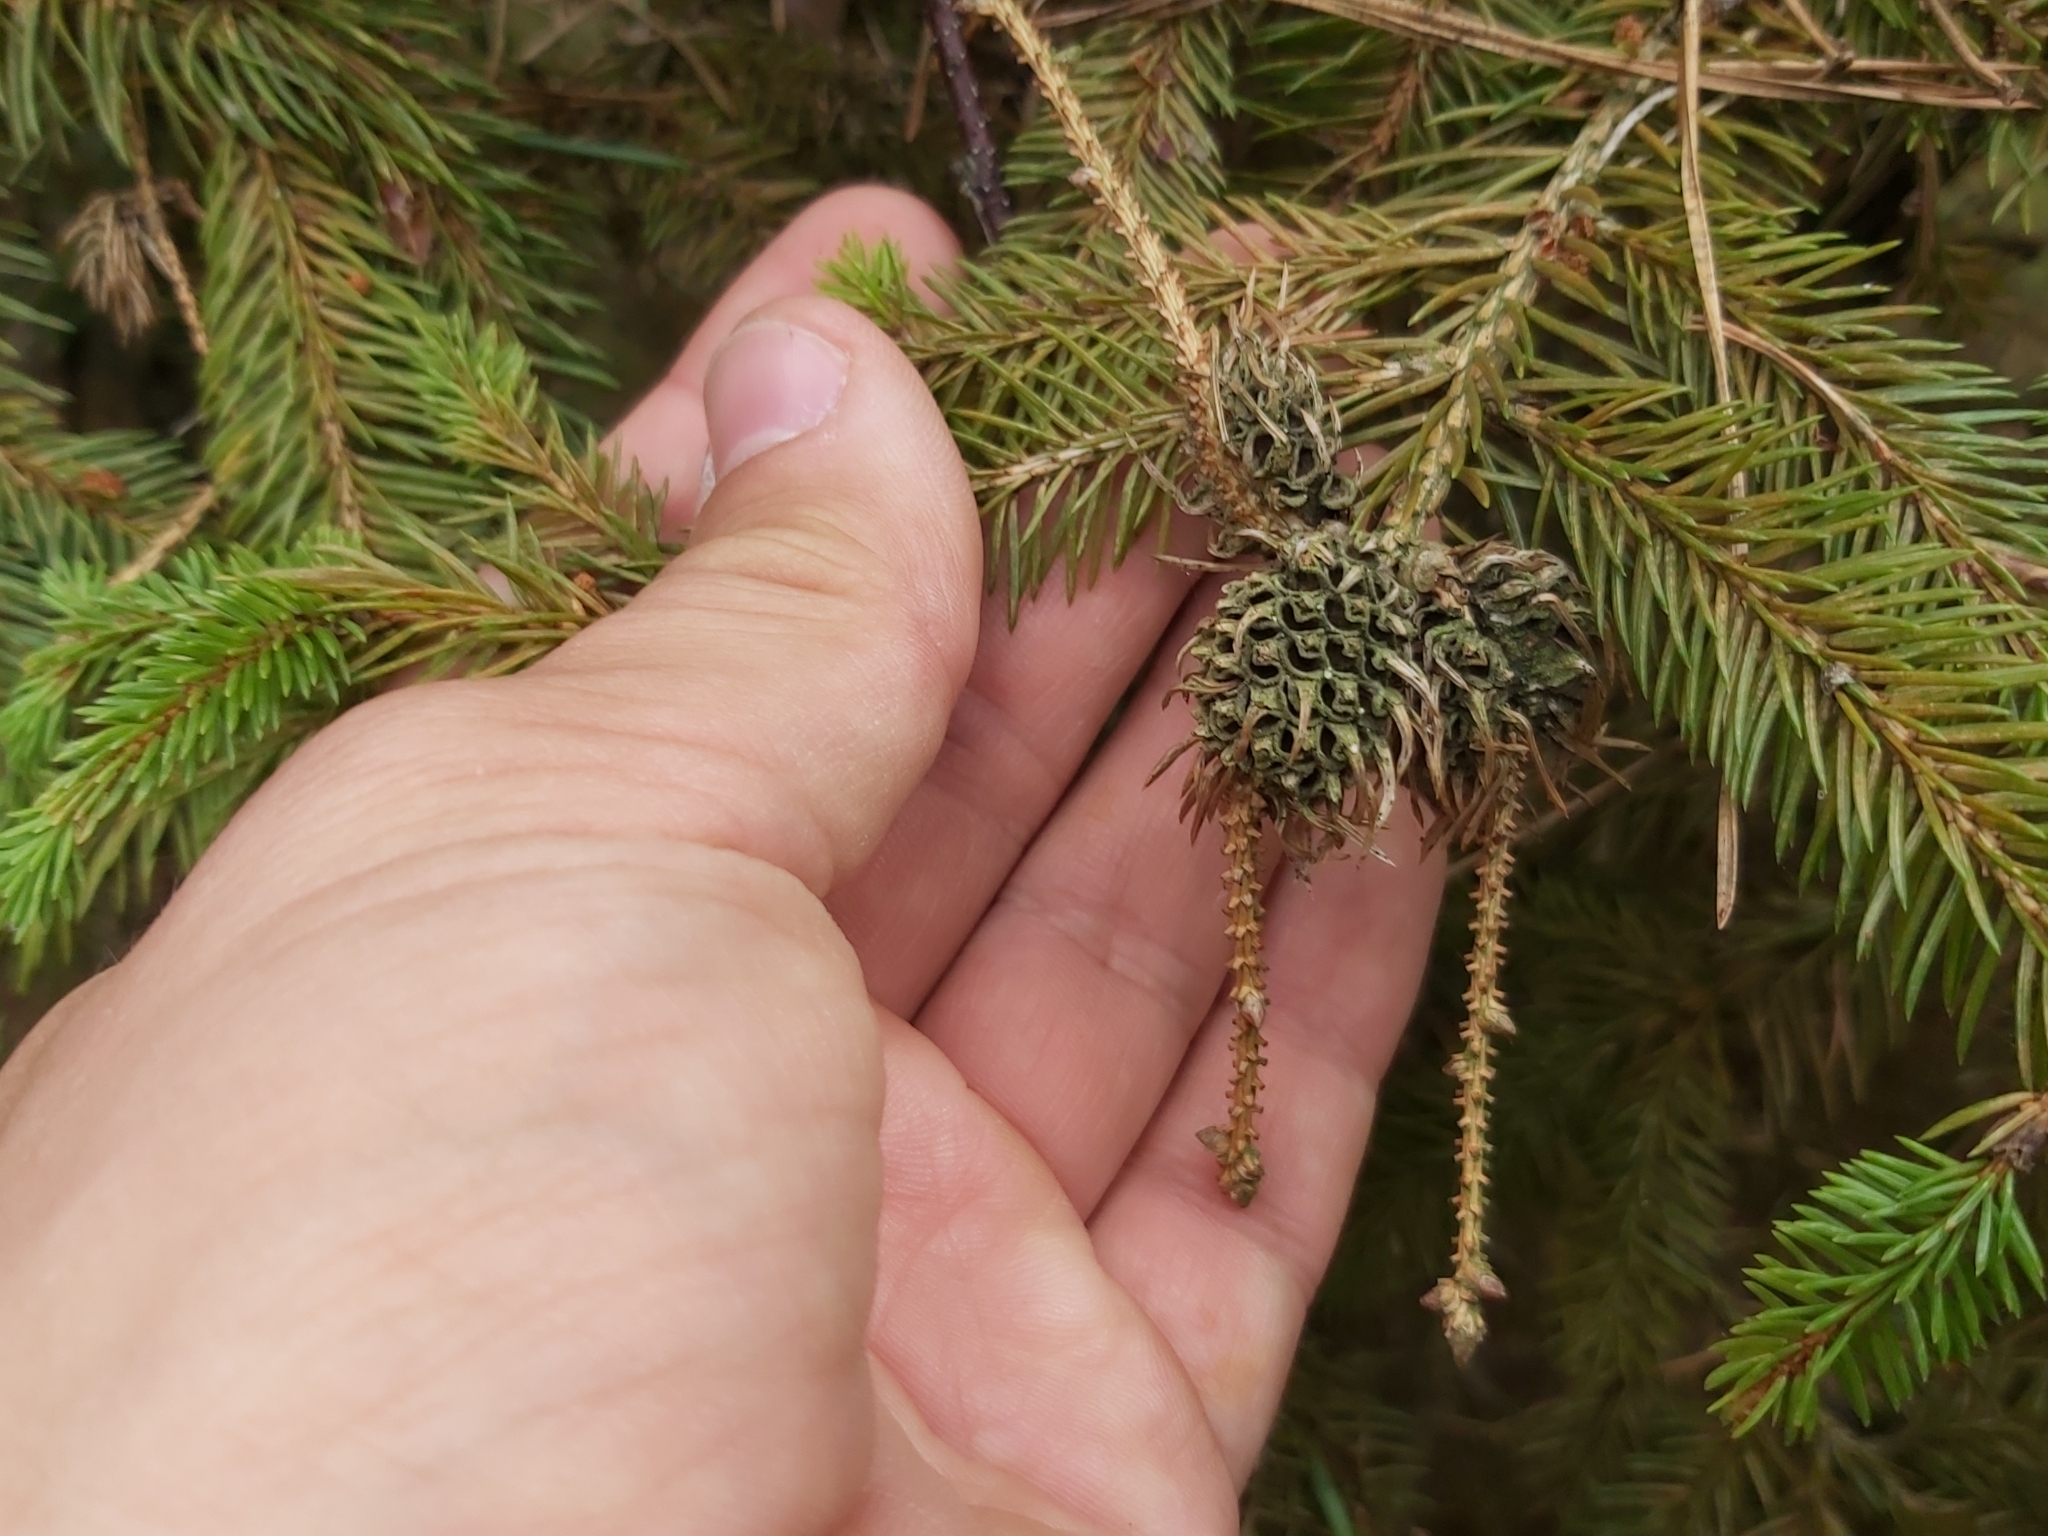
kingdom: Animalia
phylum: Arthropoda
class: Insecta
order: Hemiptera
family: Adelgidae
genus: Adelges
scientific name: Adelges abietis
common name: Eastern spruce gall adelgid
